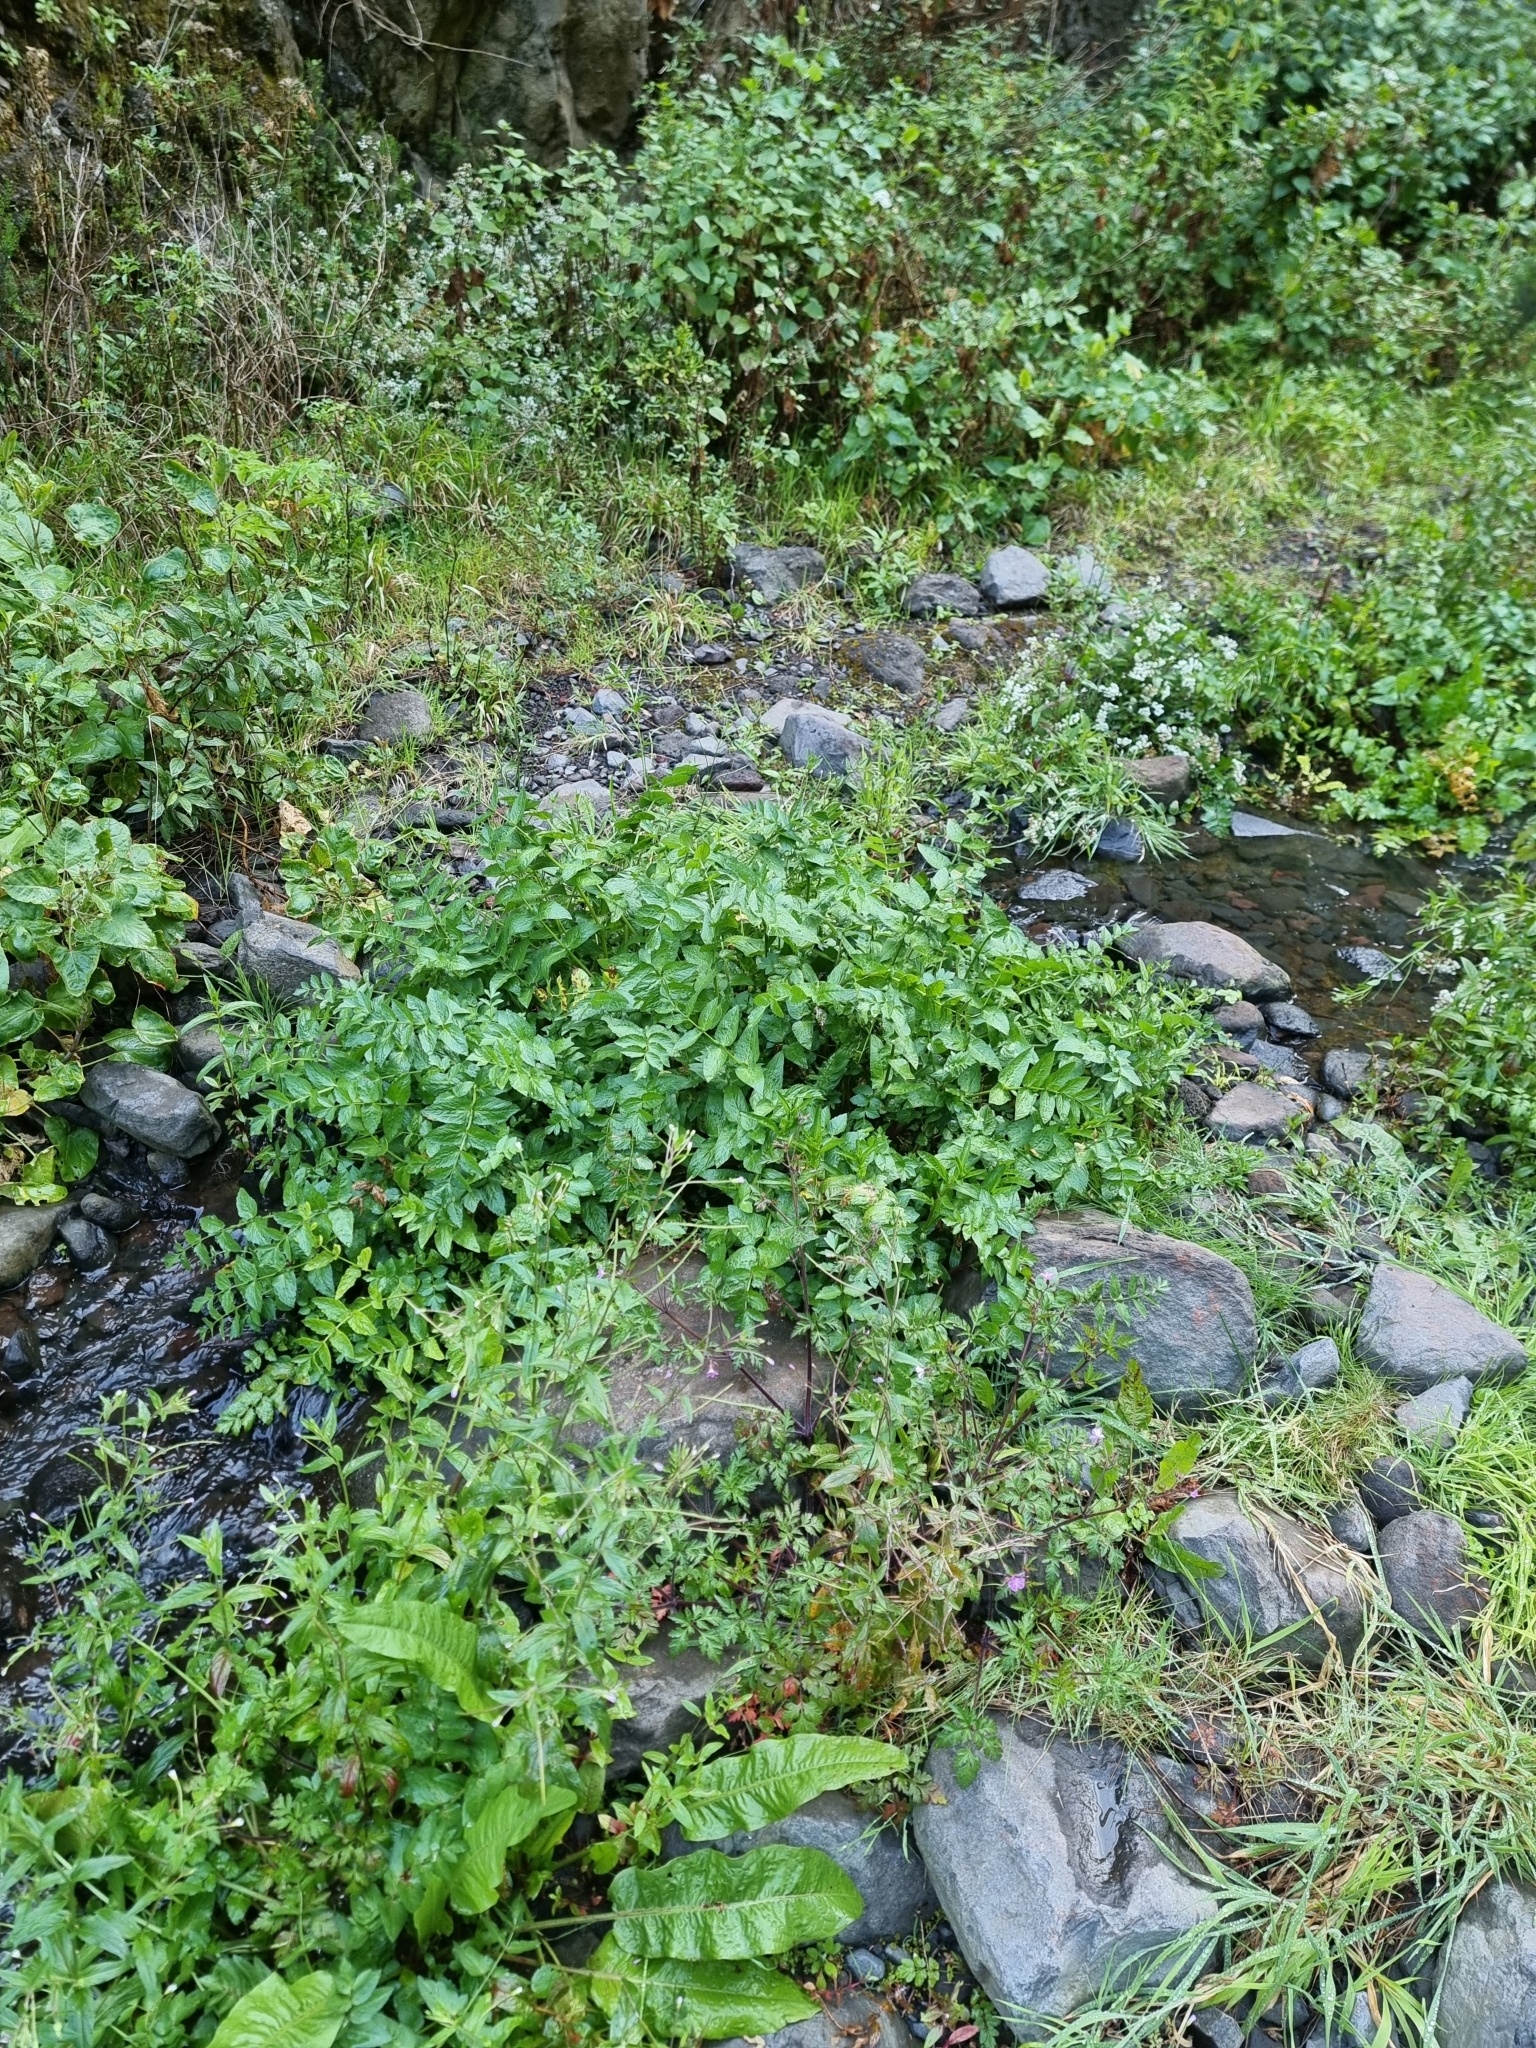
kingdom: Plantae
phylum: Tracheophyta
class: Magnoliopsida
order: Apiales
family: Apiaceae
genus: Helosciadium
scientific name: Helosciadium nodiflorum
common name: Fool's-watercress
